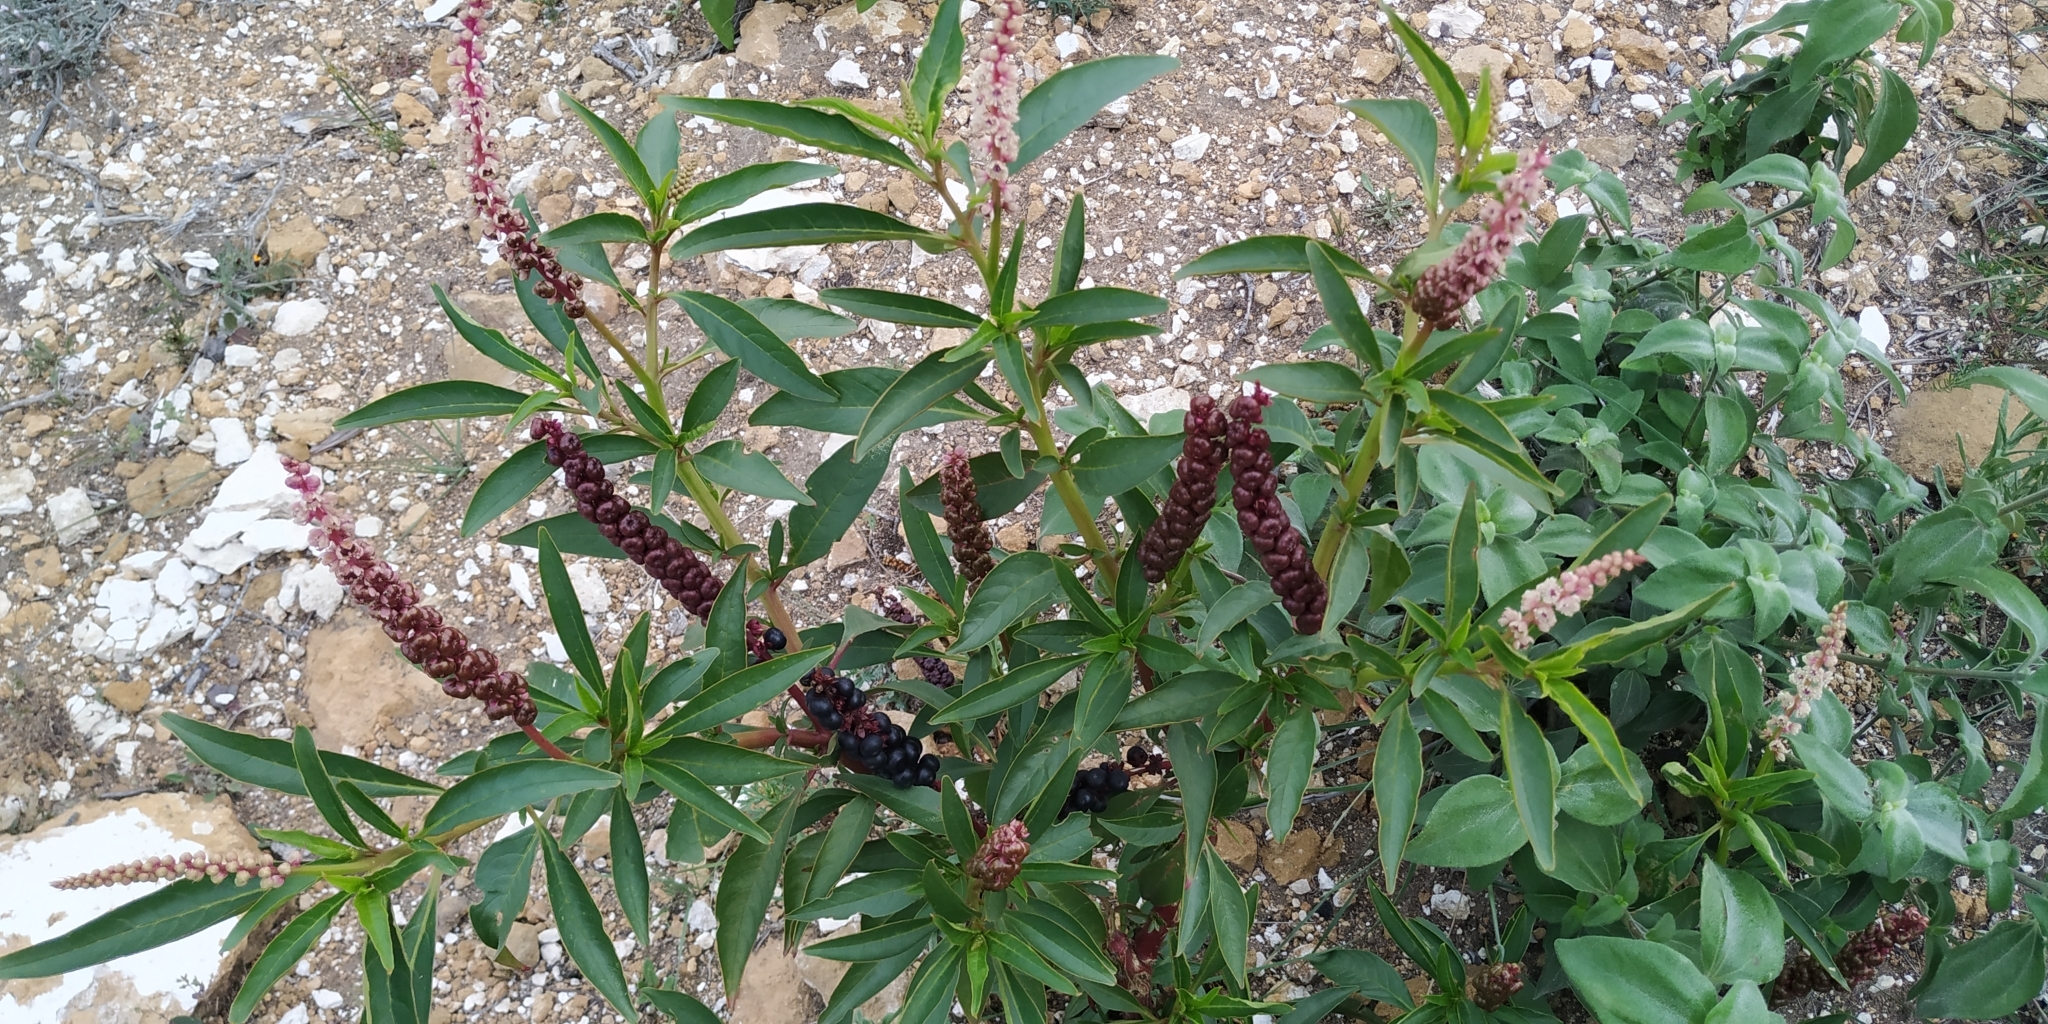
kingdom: Plantae
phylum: Tracheophyta
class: Magnoliopsida
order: Caryophyllales
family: Phytolaccaceae
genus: Phytolacca
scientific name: Phytolacca icosandra
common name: Button pokeweed
